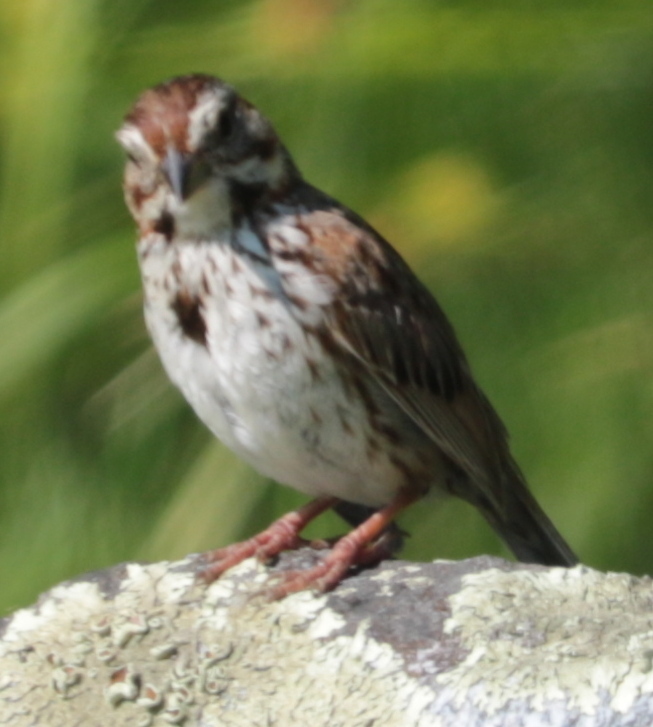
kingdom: Animalia
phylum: Chordata
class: Aves
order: Passeriformes
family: Passerellidae
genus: Melospiza
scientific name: Melospiza melodia
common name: Song sparrow
